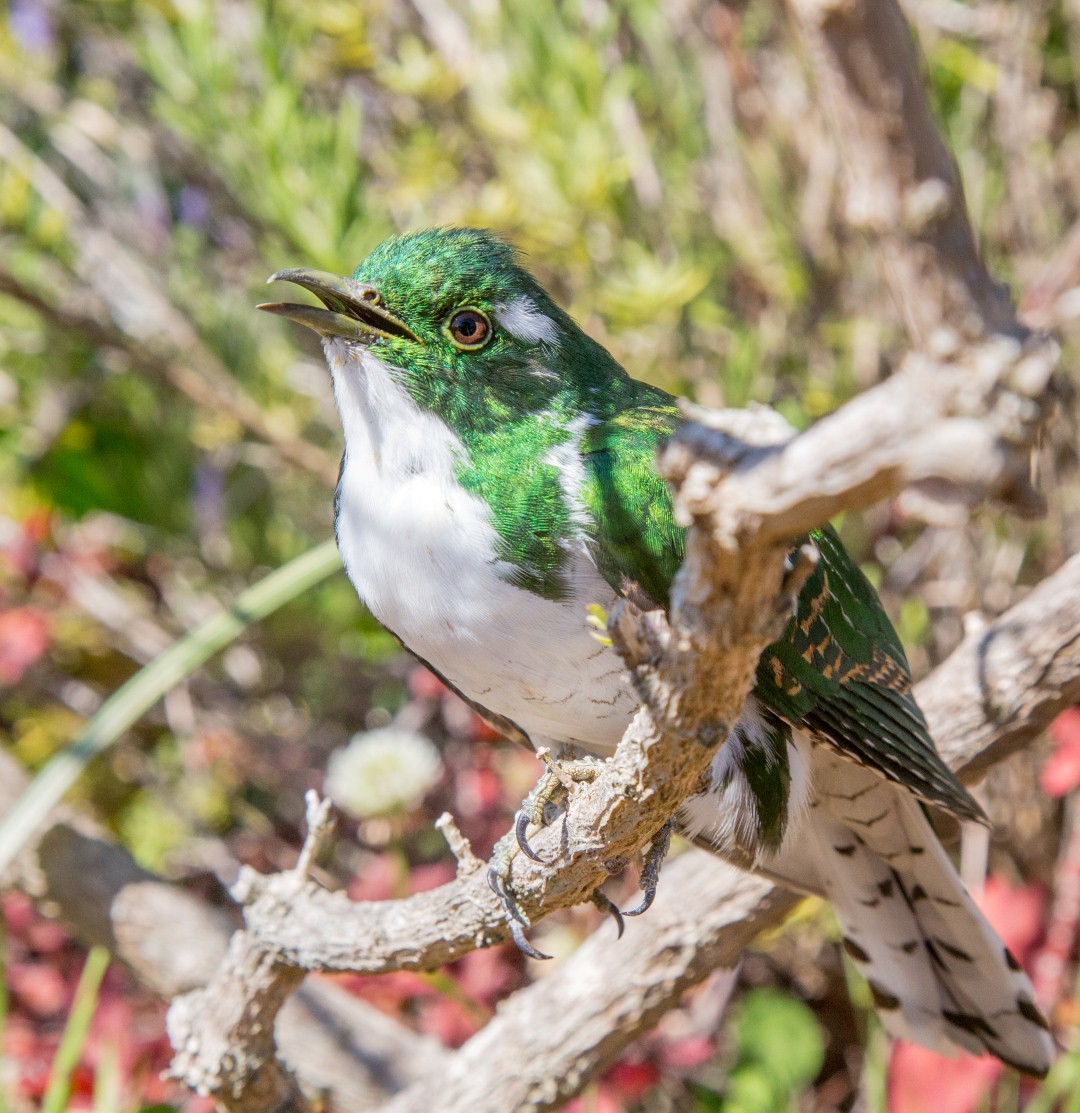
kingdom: Animalia
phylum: Chordata
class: Aves
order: Cuculiformes
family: Cuculidae
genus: Chrysococcyx
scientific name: Chrysococcyx klaas
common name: Klaas's cuckoo
